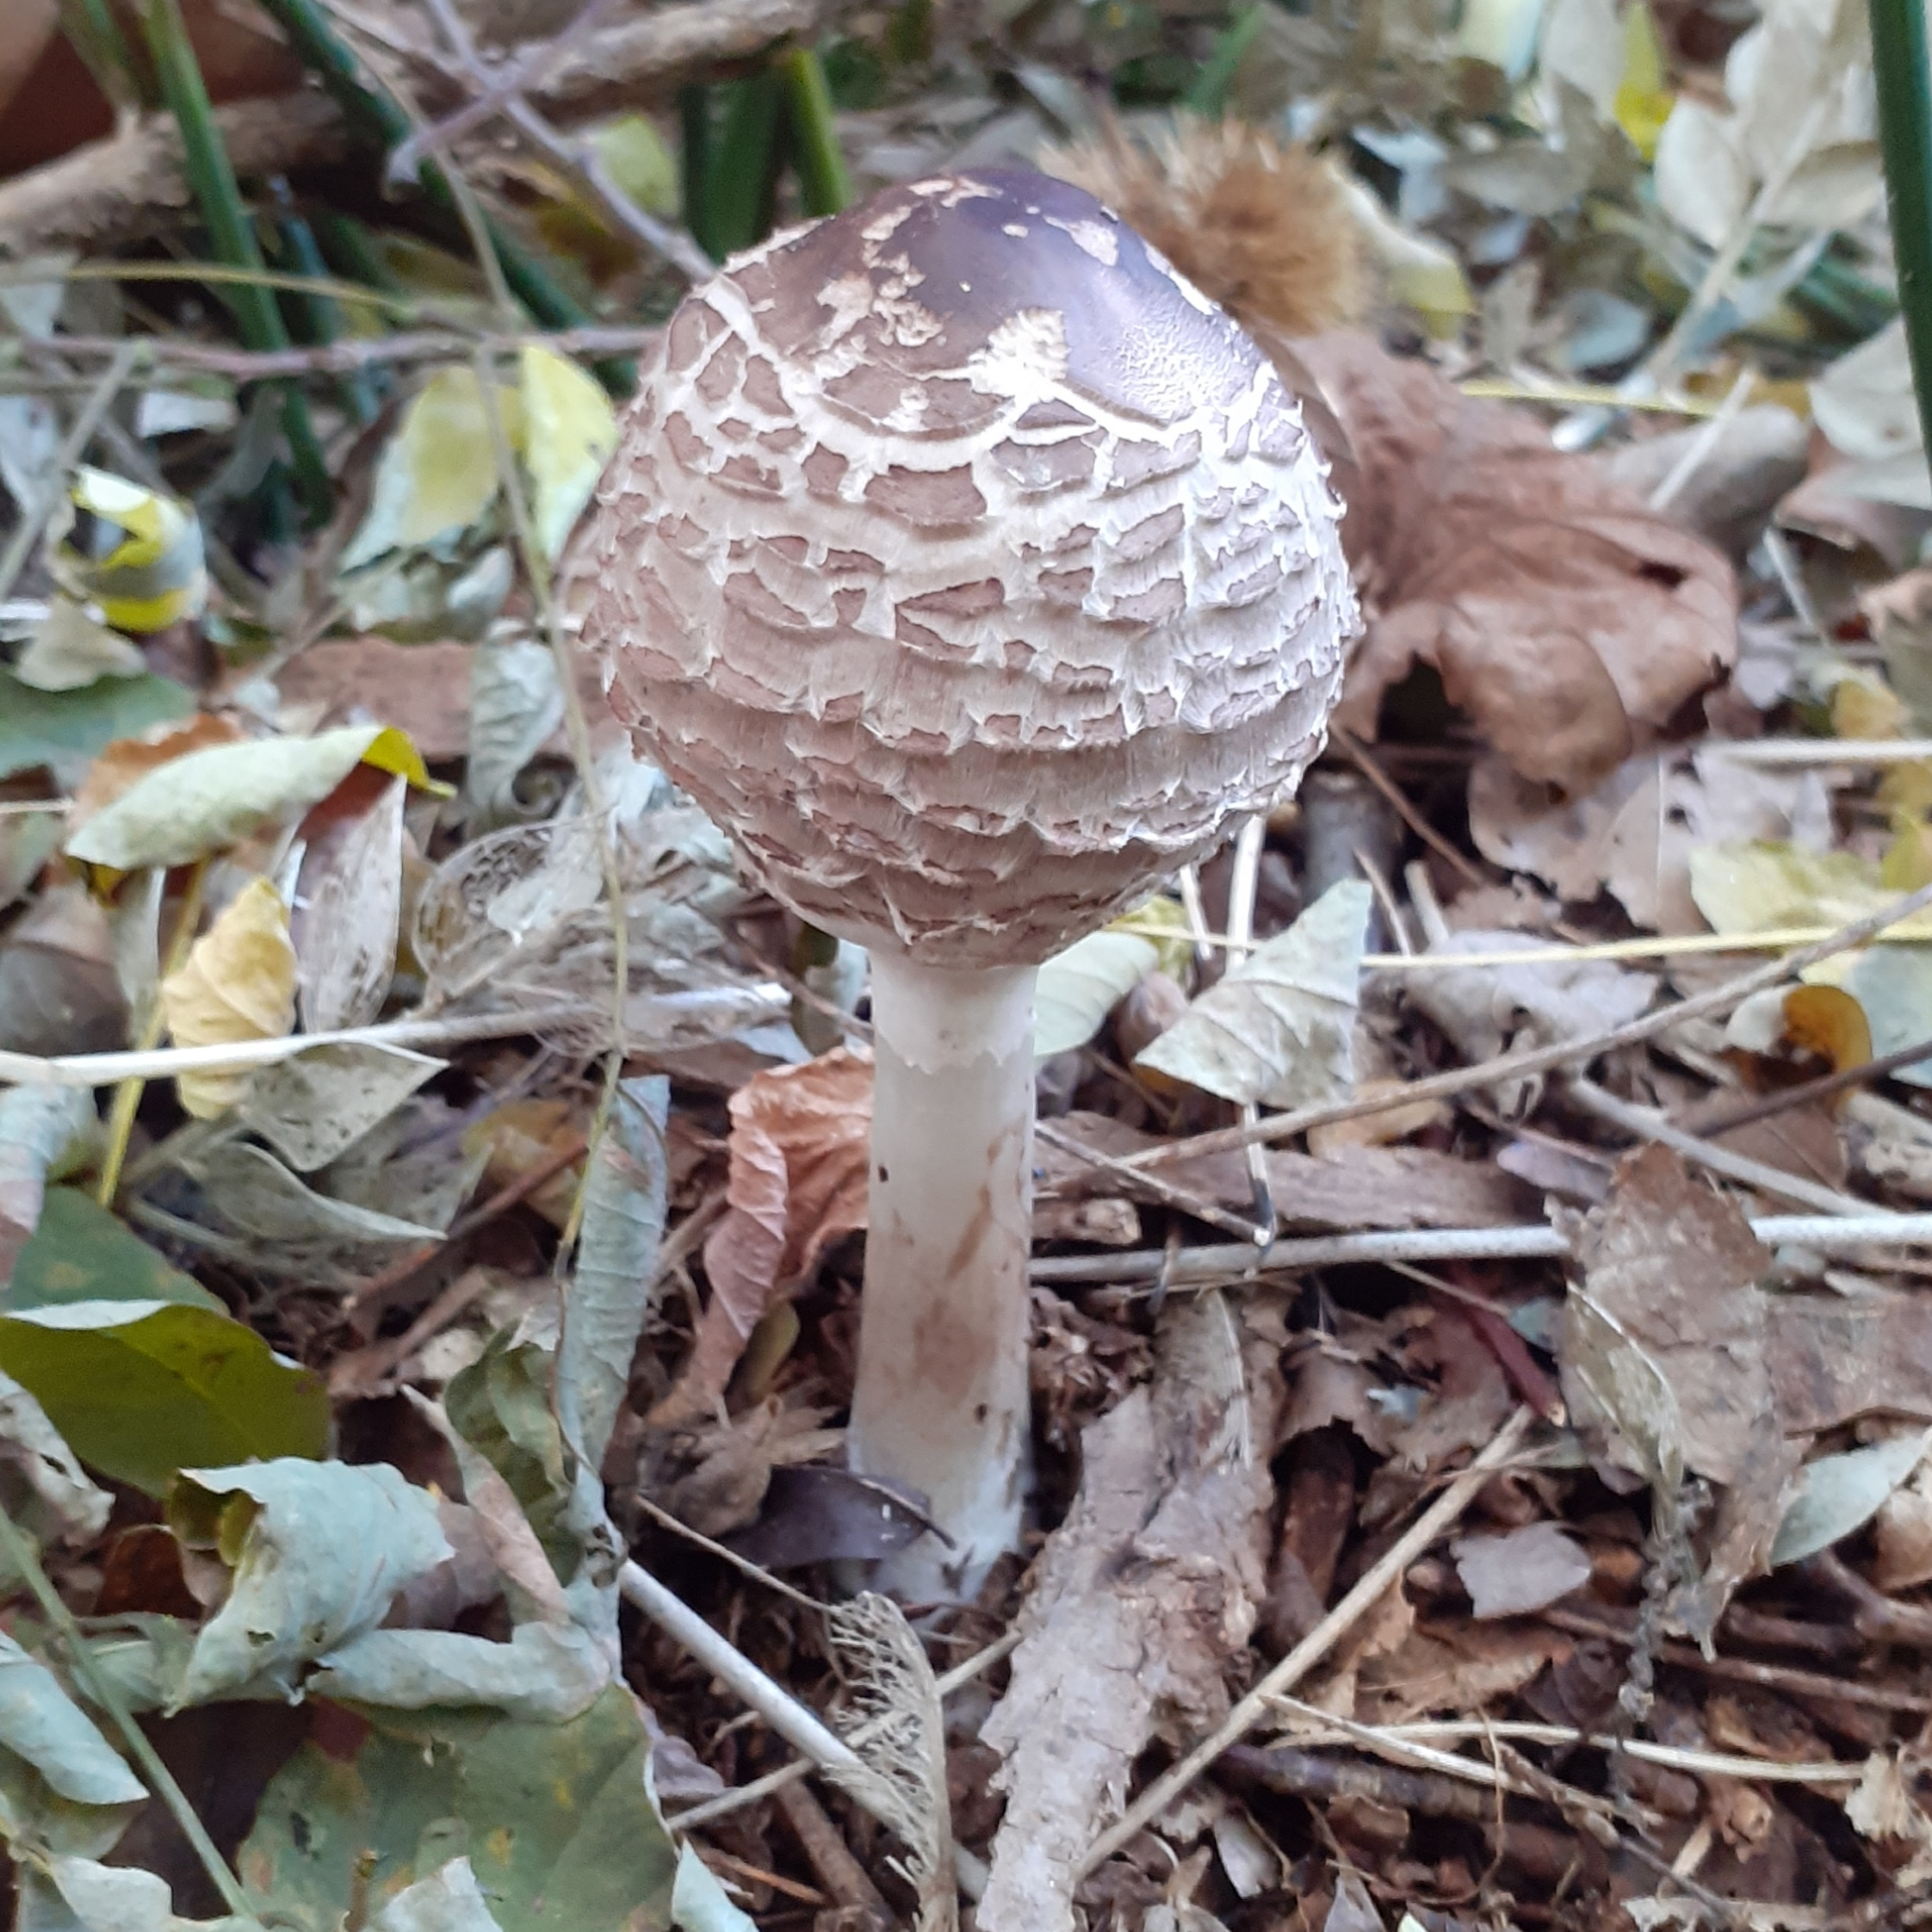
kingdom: Fungi
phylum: Basidiomycota
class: Agaricomycetes
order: Agaricales
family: Agaricaceae
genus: Macrolepiota
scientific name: Macrolepiota procera
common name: Parasol
